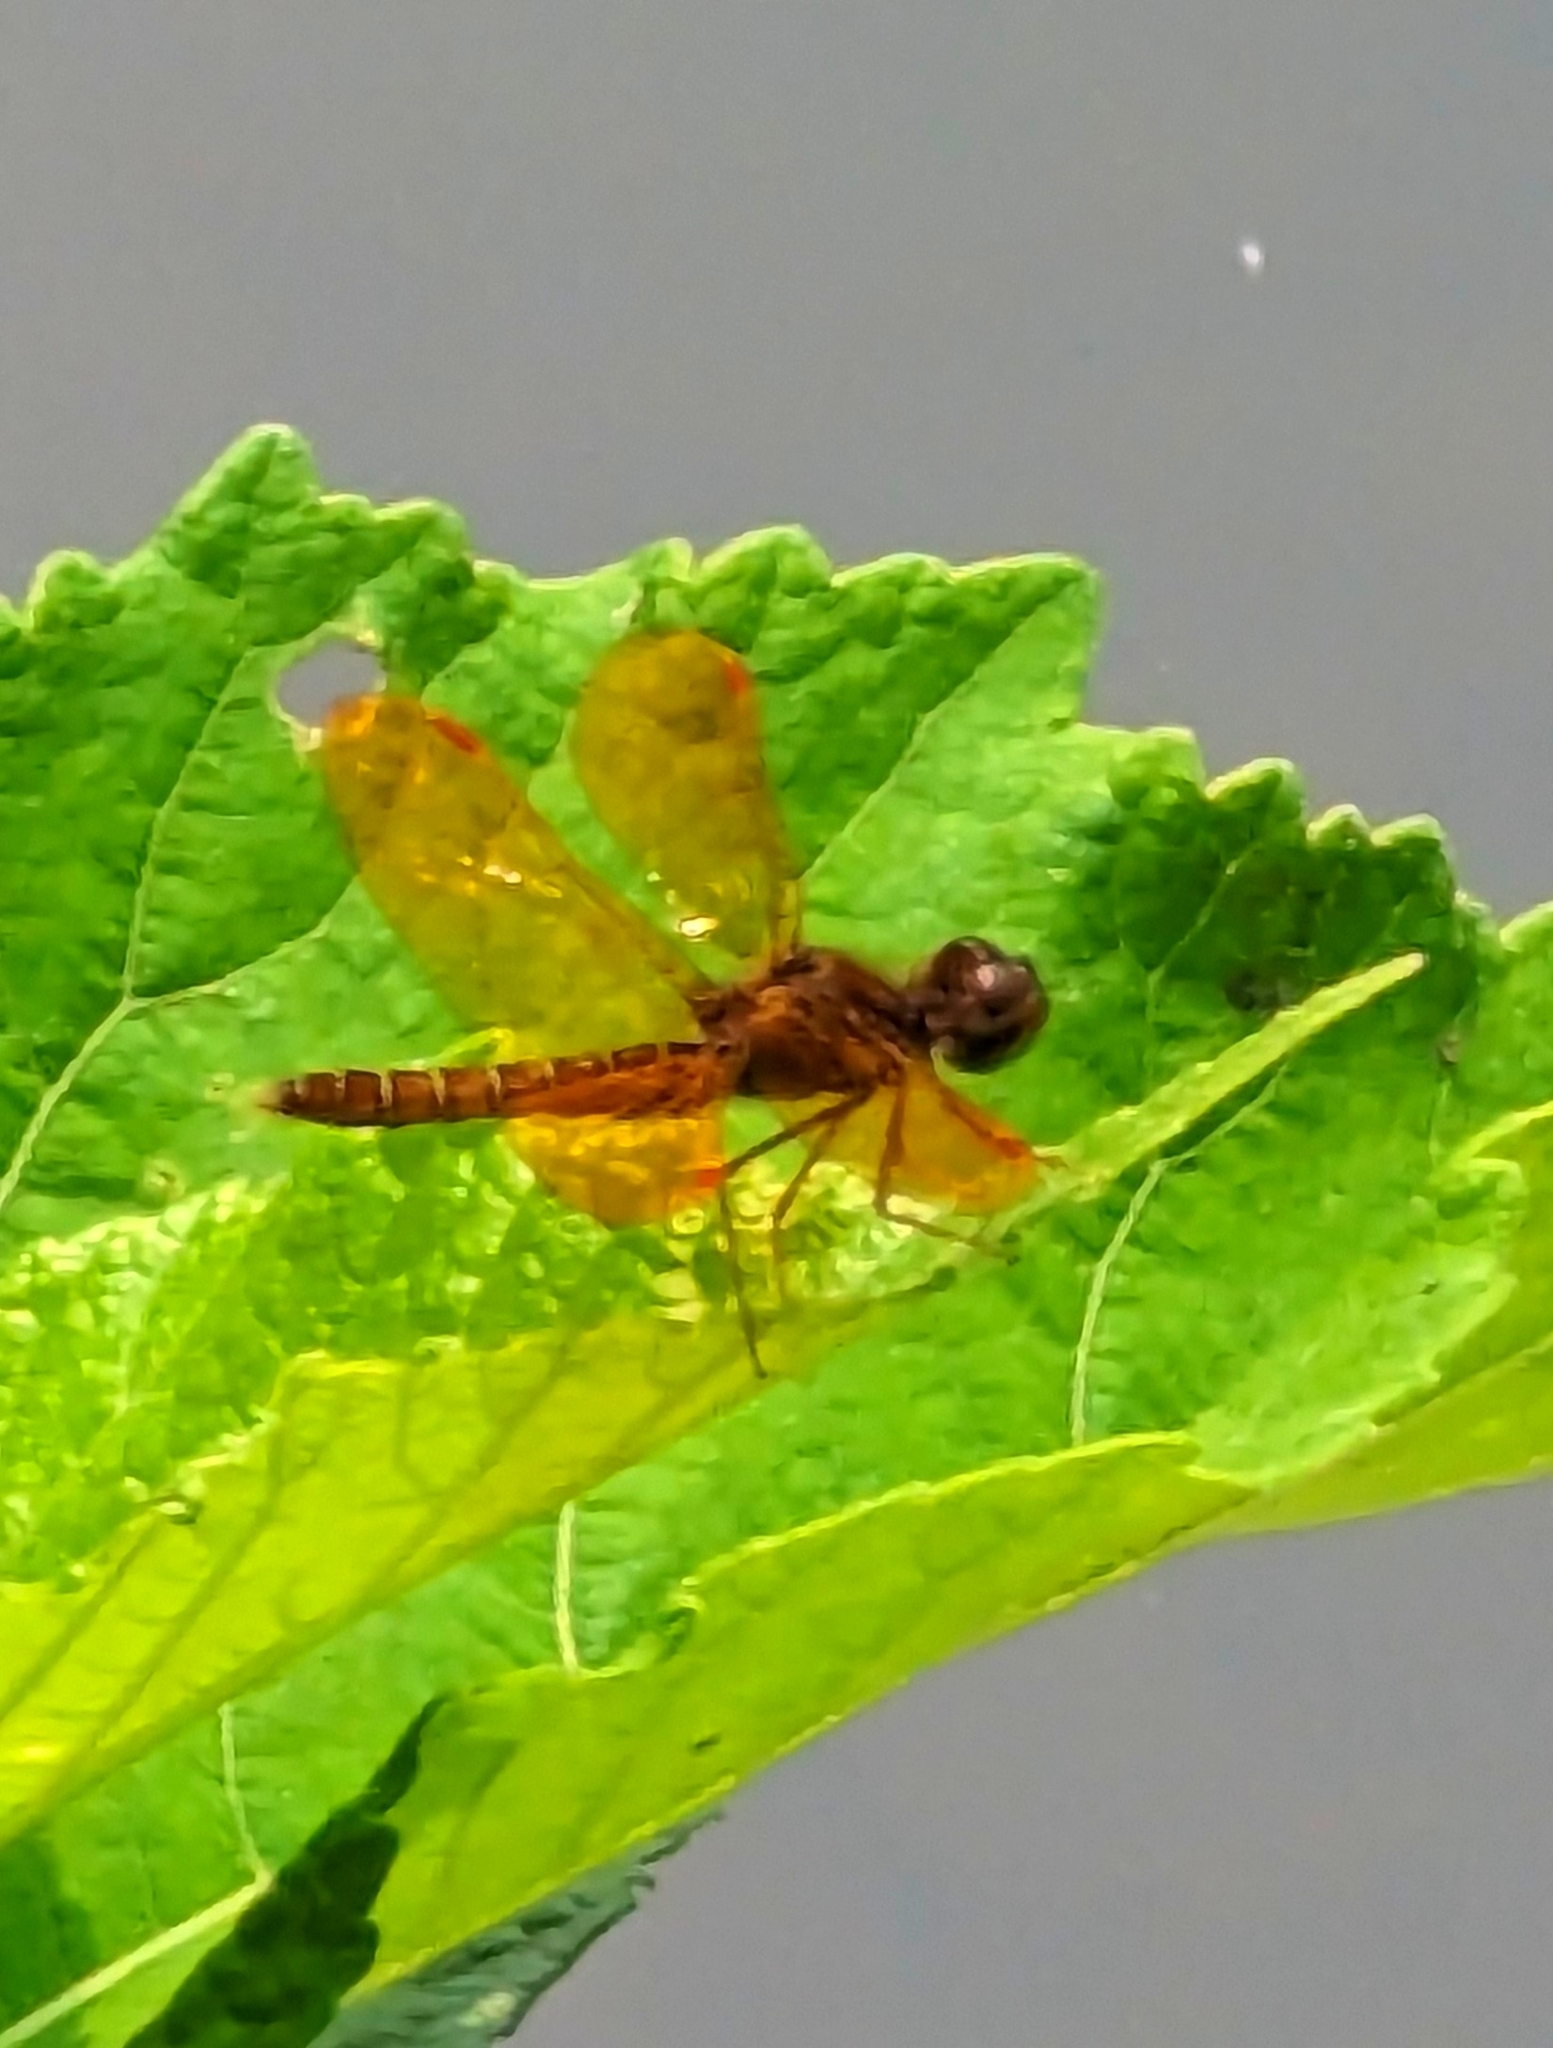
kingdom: Animalia
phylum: Arthropoda
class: Insecta
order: Odonata
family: Libellulidae
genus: Perithemis
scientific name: Perithemis tenera
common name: Eastern amberwing
